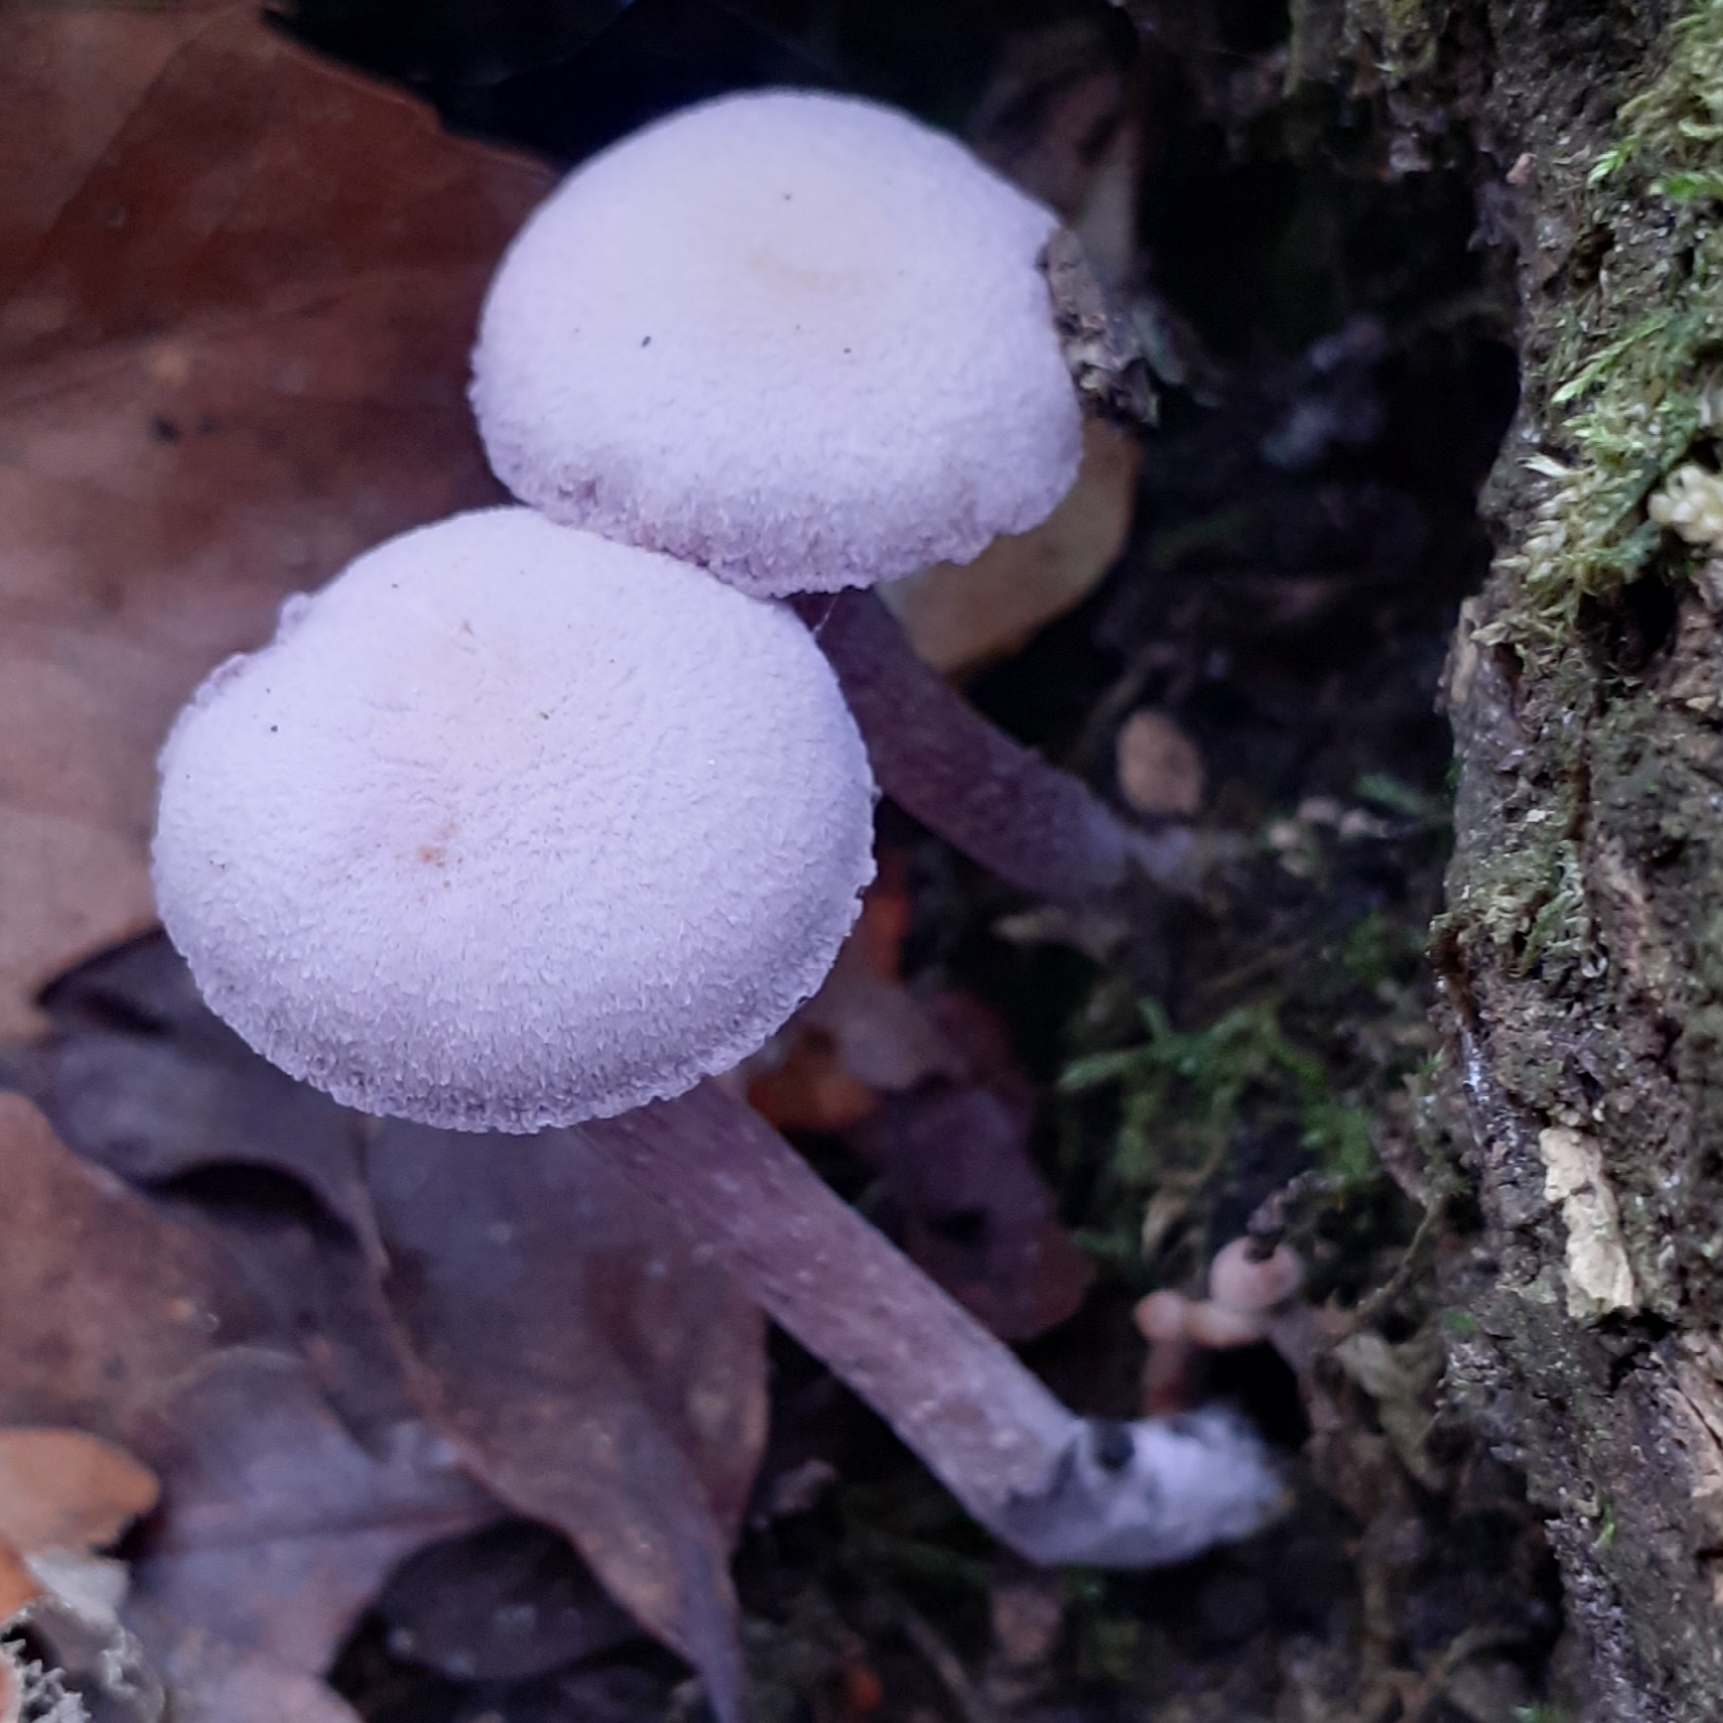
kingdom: Fungi
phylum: Basidiomycota
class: Agaricomycetes
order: Agaricales
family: Hydnangiaceae
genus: Laccaria
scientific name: Laccaria amethystina
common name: Amethyst deceiver
